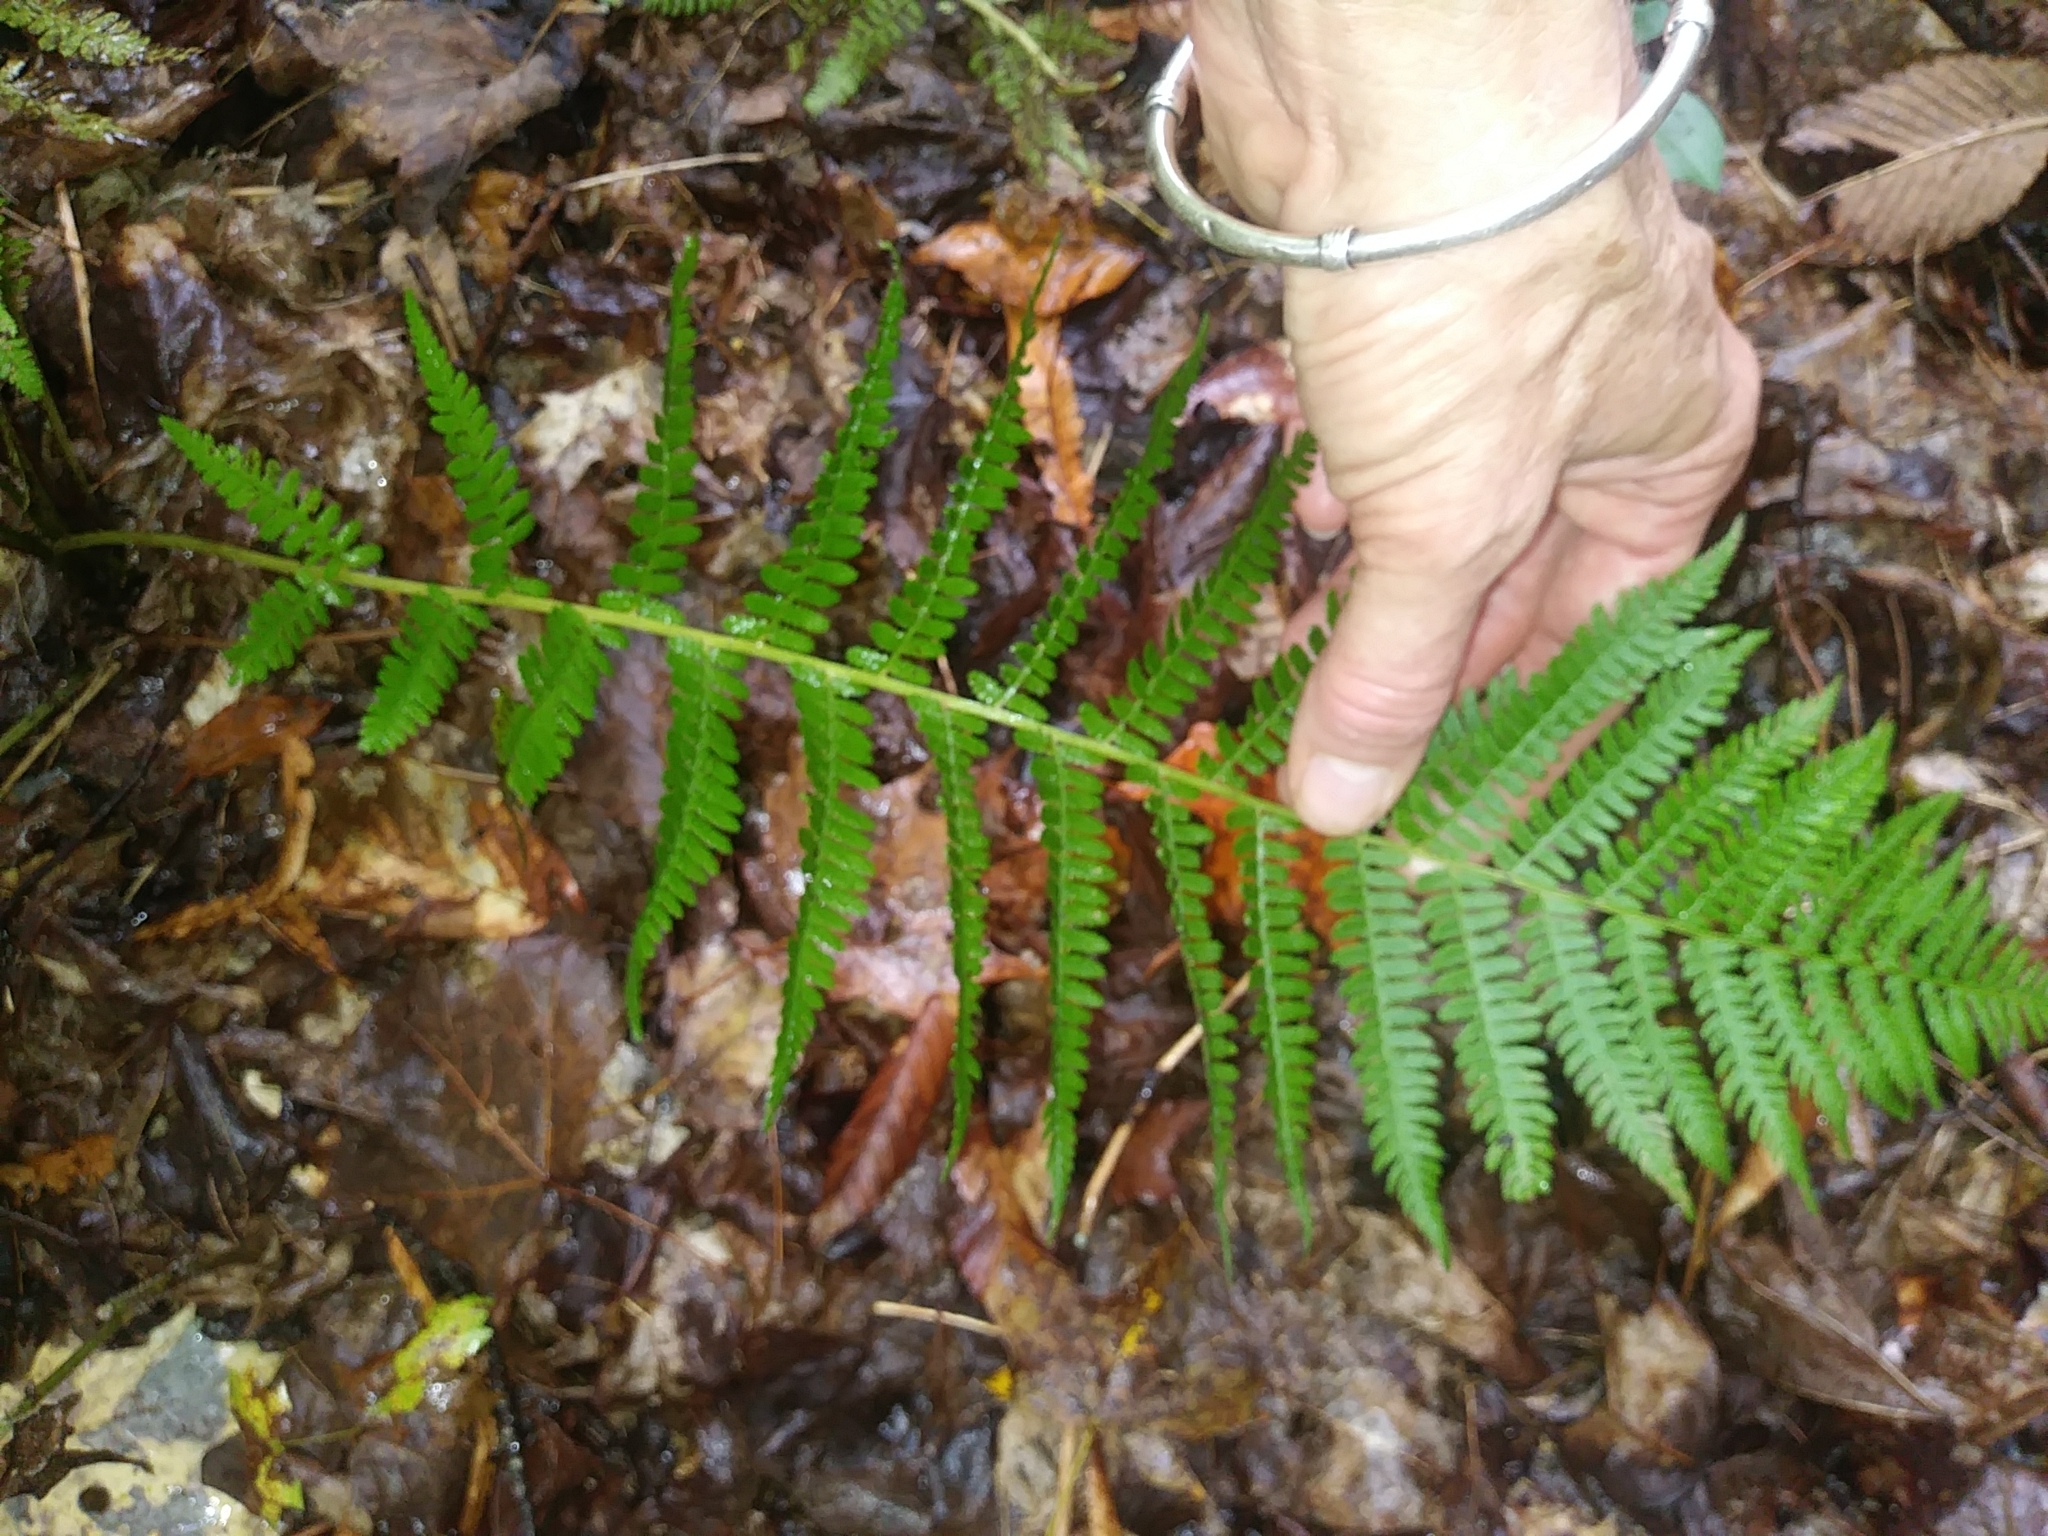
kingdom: Plantae
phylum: Tracheophyta
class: Polypodiopsida
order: Polypodiales
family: Athyriaceae
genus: Athyrium
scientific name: Athyrium angustum
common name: Northern lady fern
